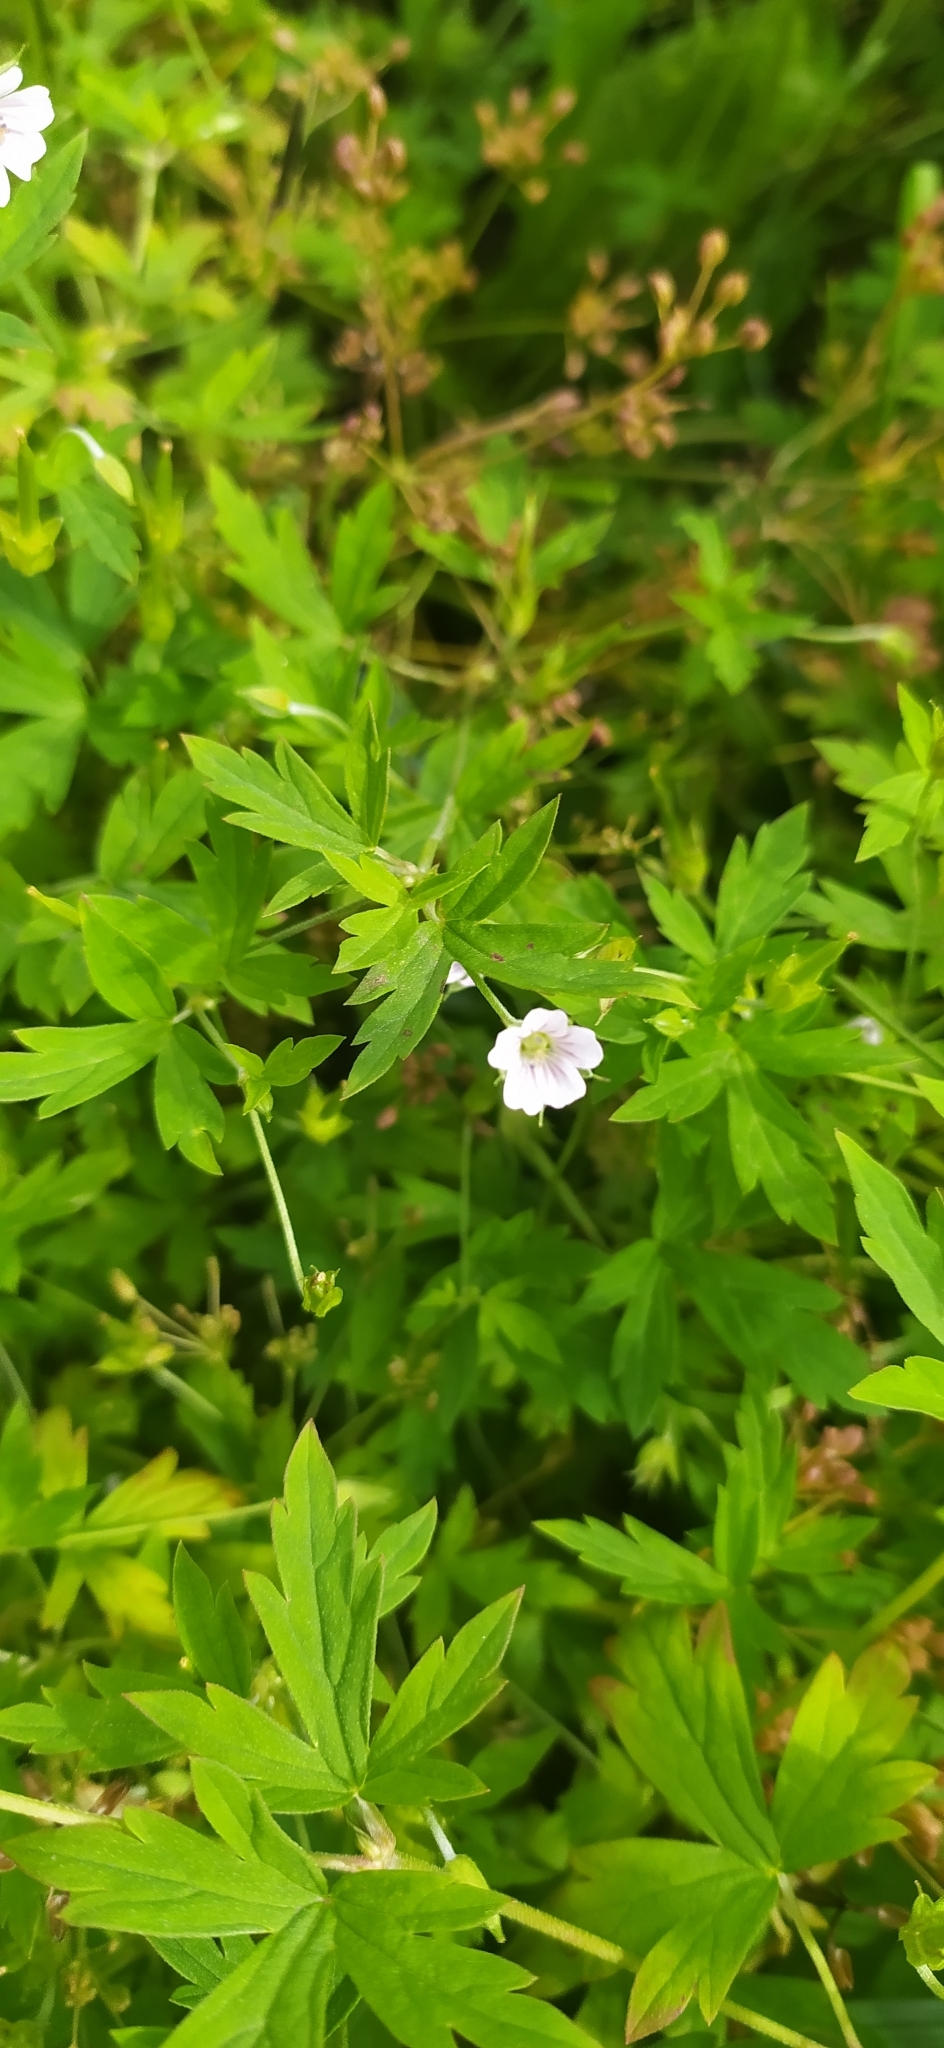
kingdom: Plantae
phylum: Tracheophyta
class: Magnoliopsida
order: Geraniales
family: Geraniaceae
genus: Geranium
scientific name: Geranium sibiricum
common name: Siberian crane's-bill
